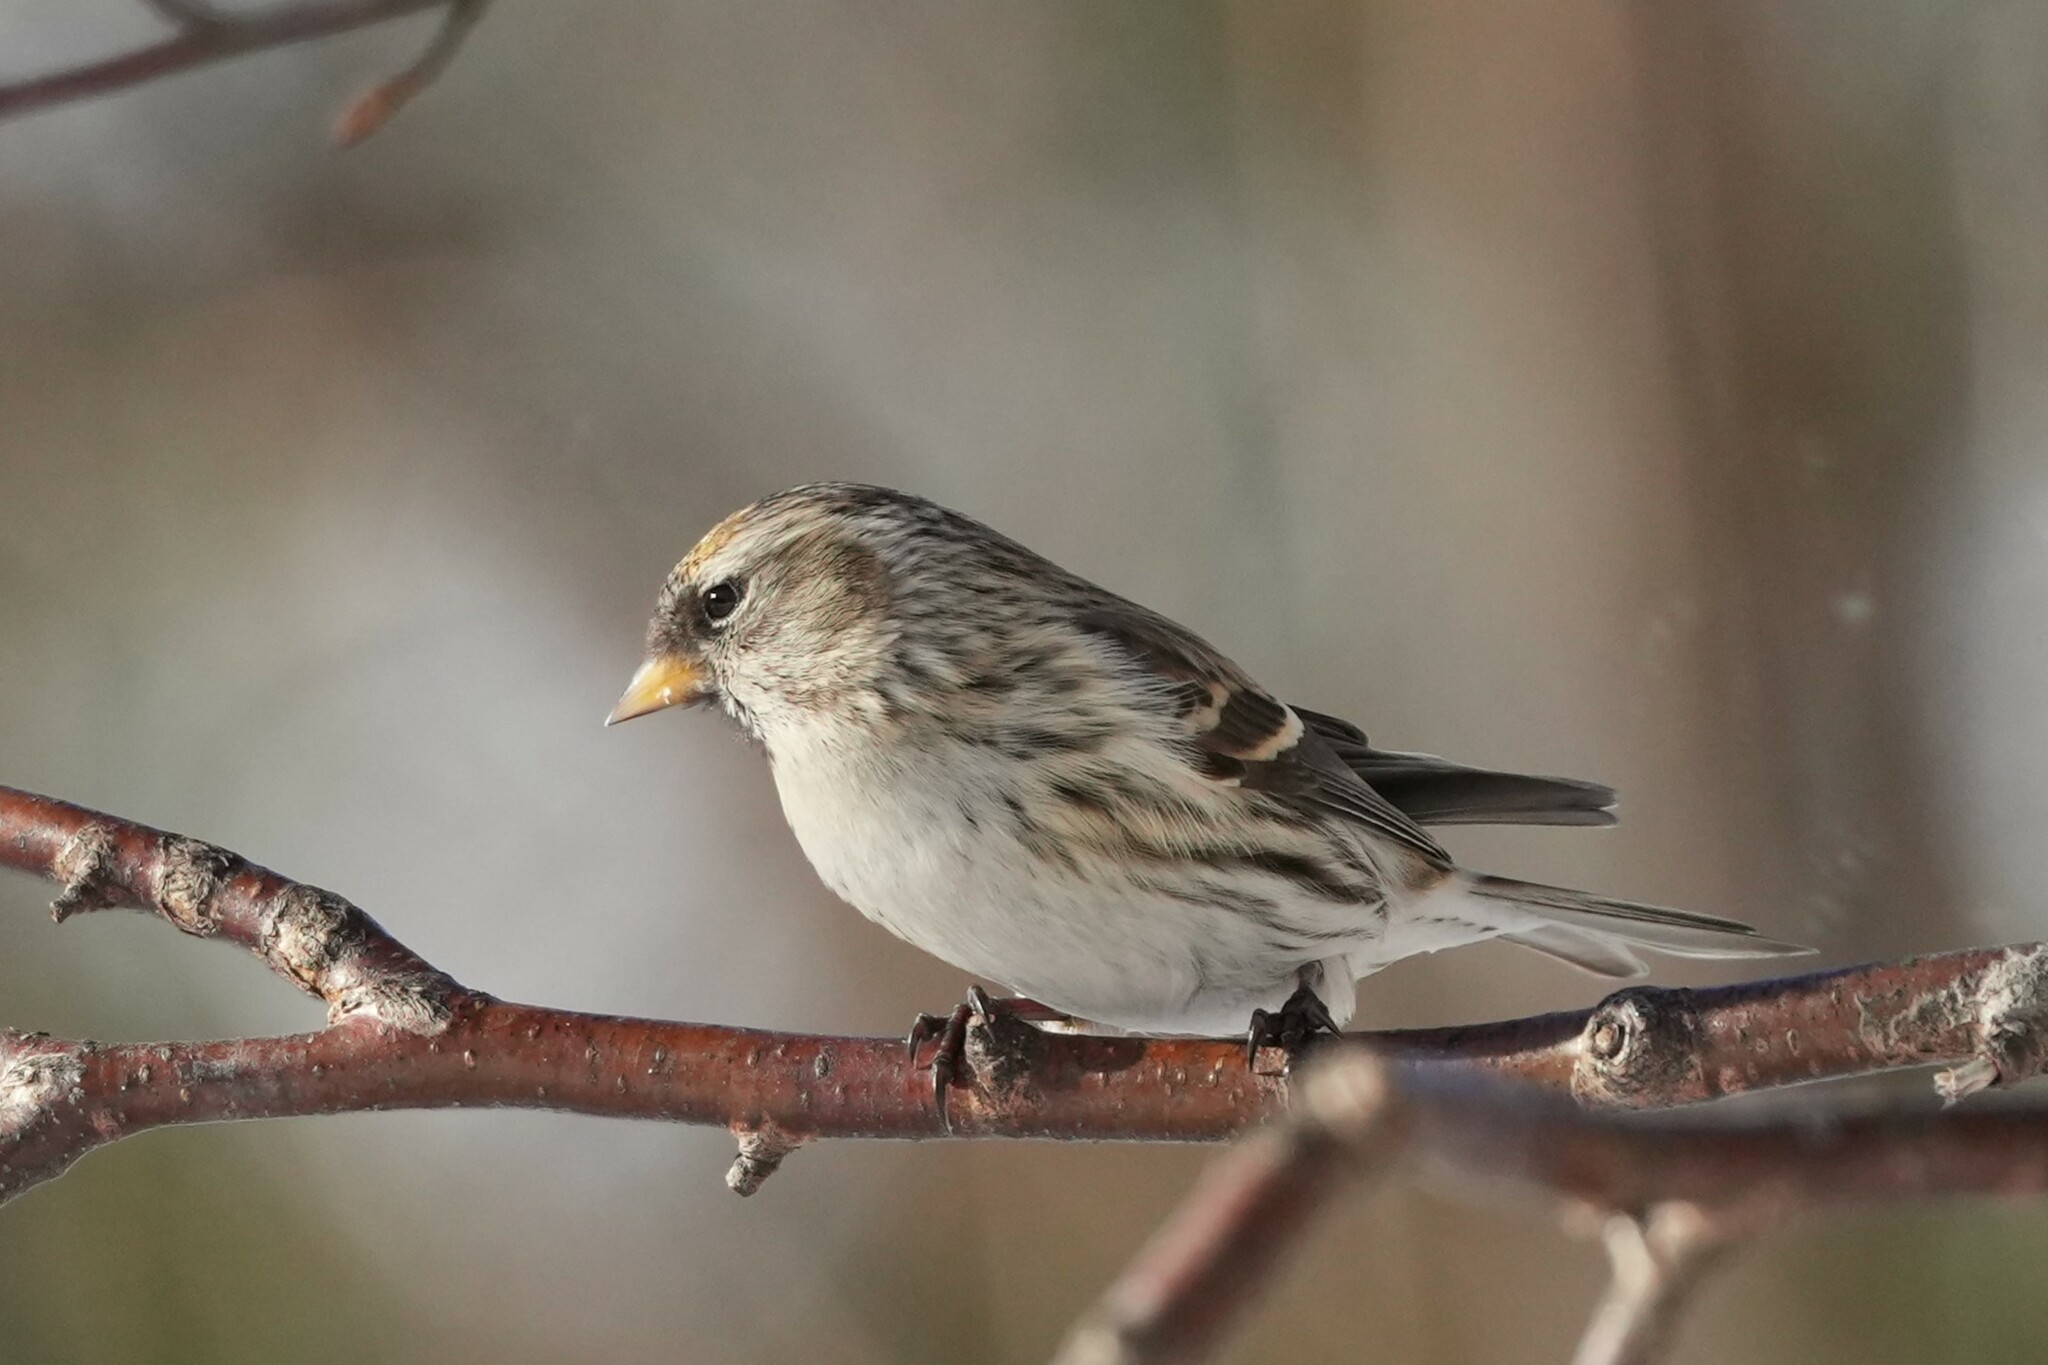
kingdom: Animalia
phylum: Chordata
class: Aves
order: Passeriformes
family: Fringillidae
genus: Acanthis
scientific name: Acanthis flammea
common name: Common redpoll
